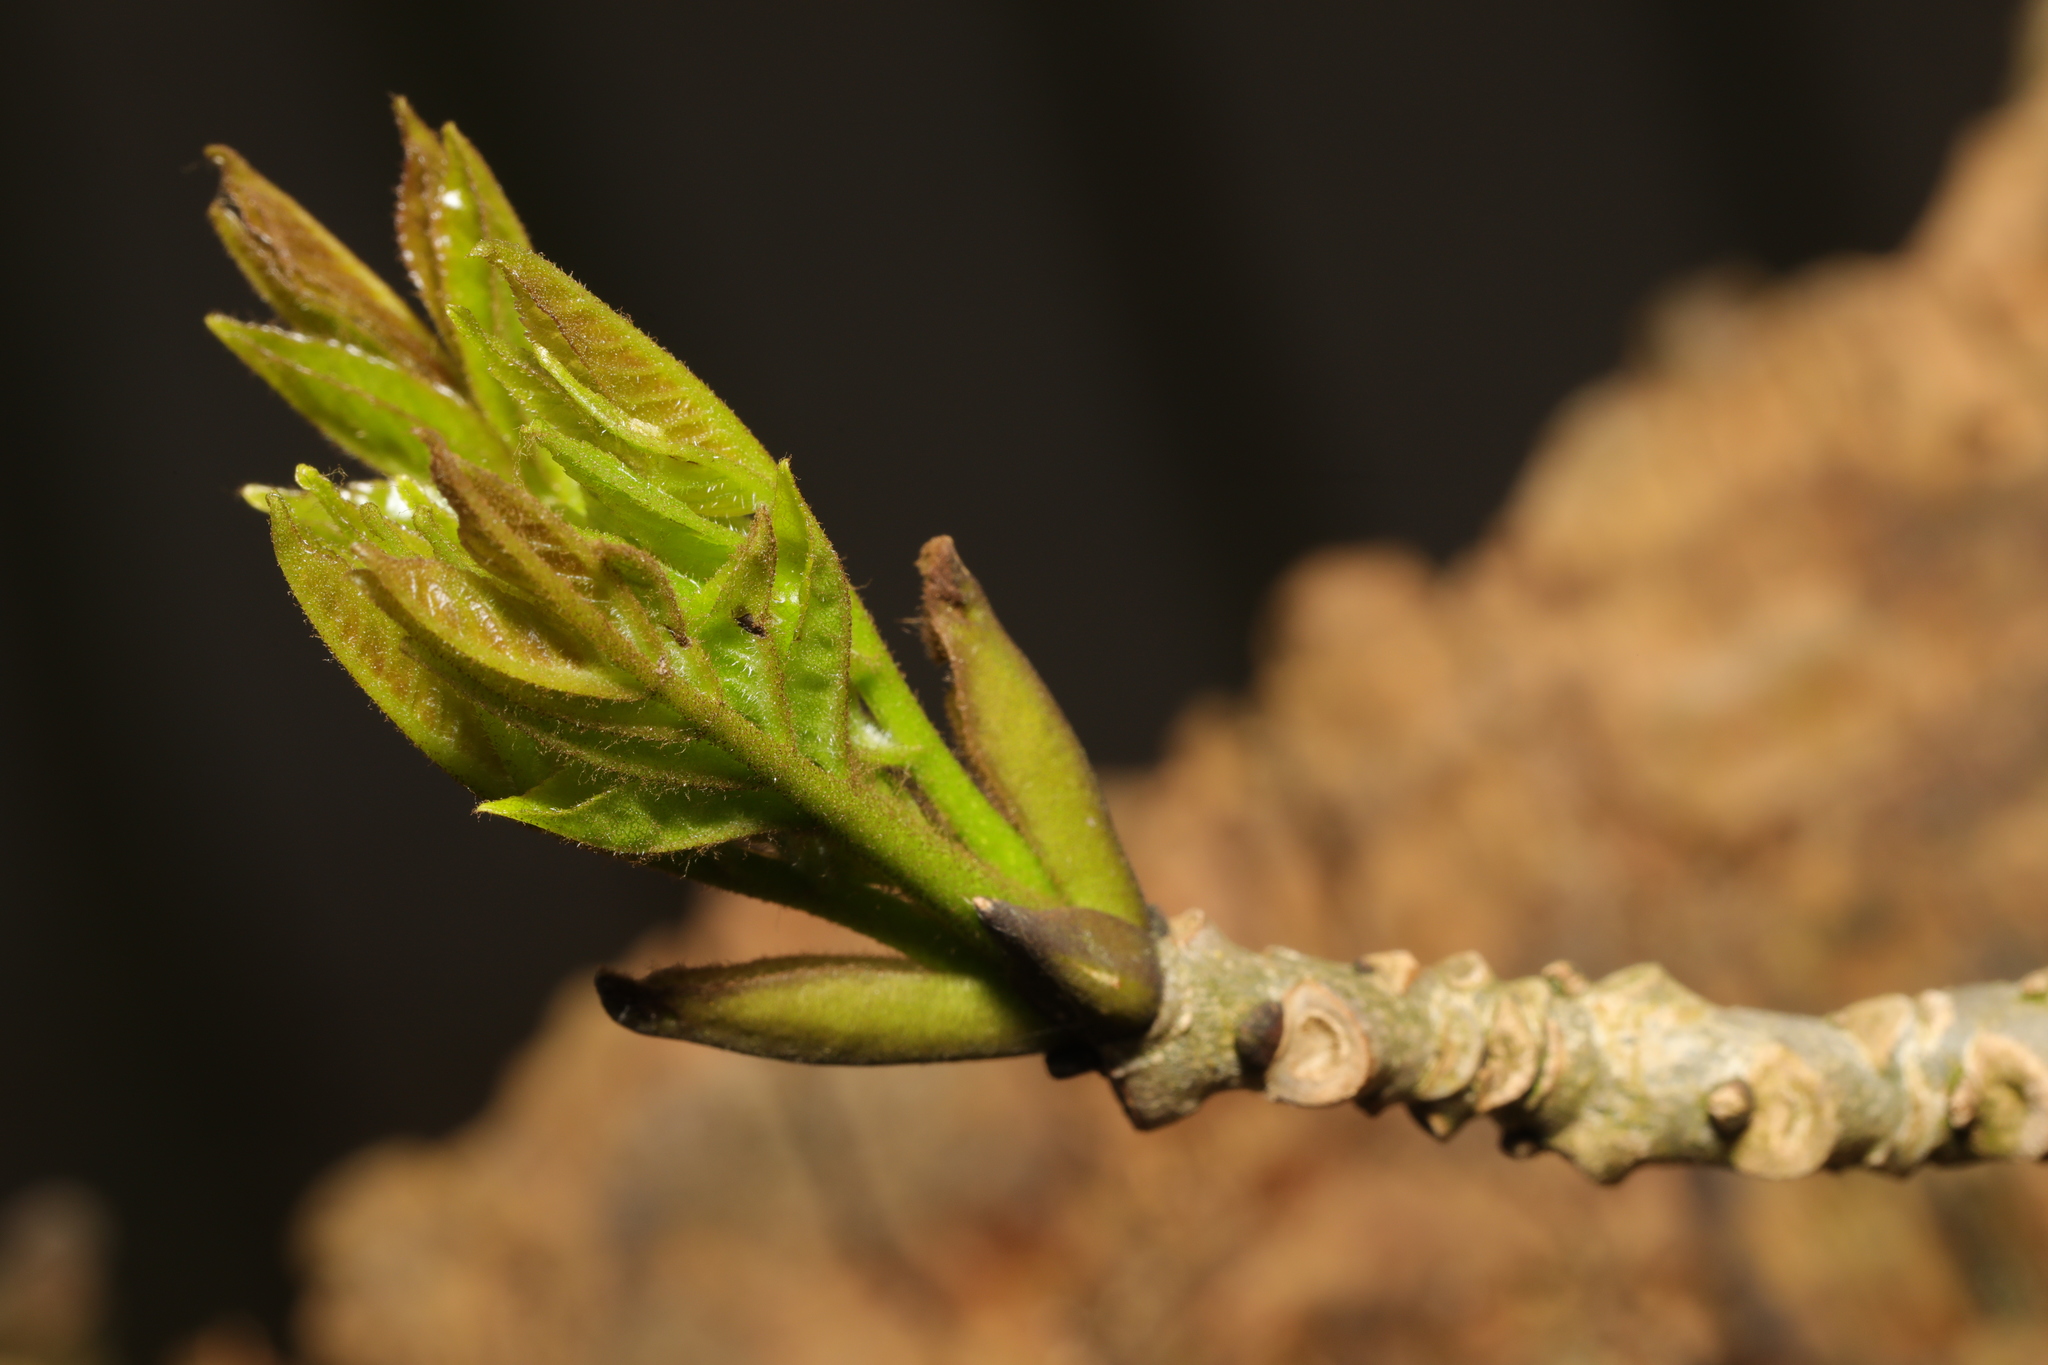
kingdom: Plantae
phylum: Tracheophyta
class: Magnoliopsida
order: Lamiales
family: Oleaceae
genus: Fraxinus
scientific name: Fraxinus excelsior
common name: European ash
